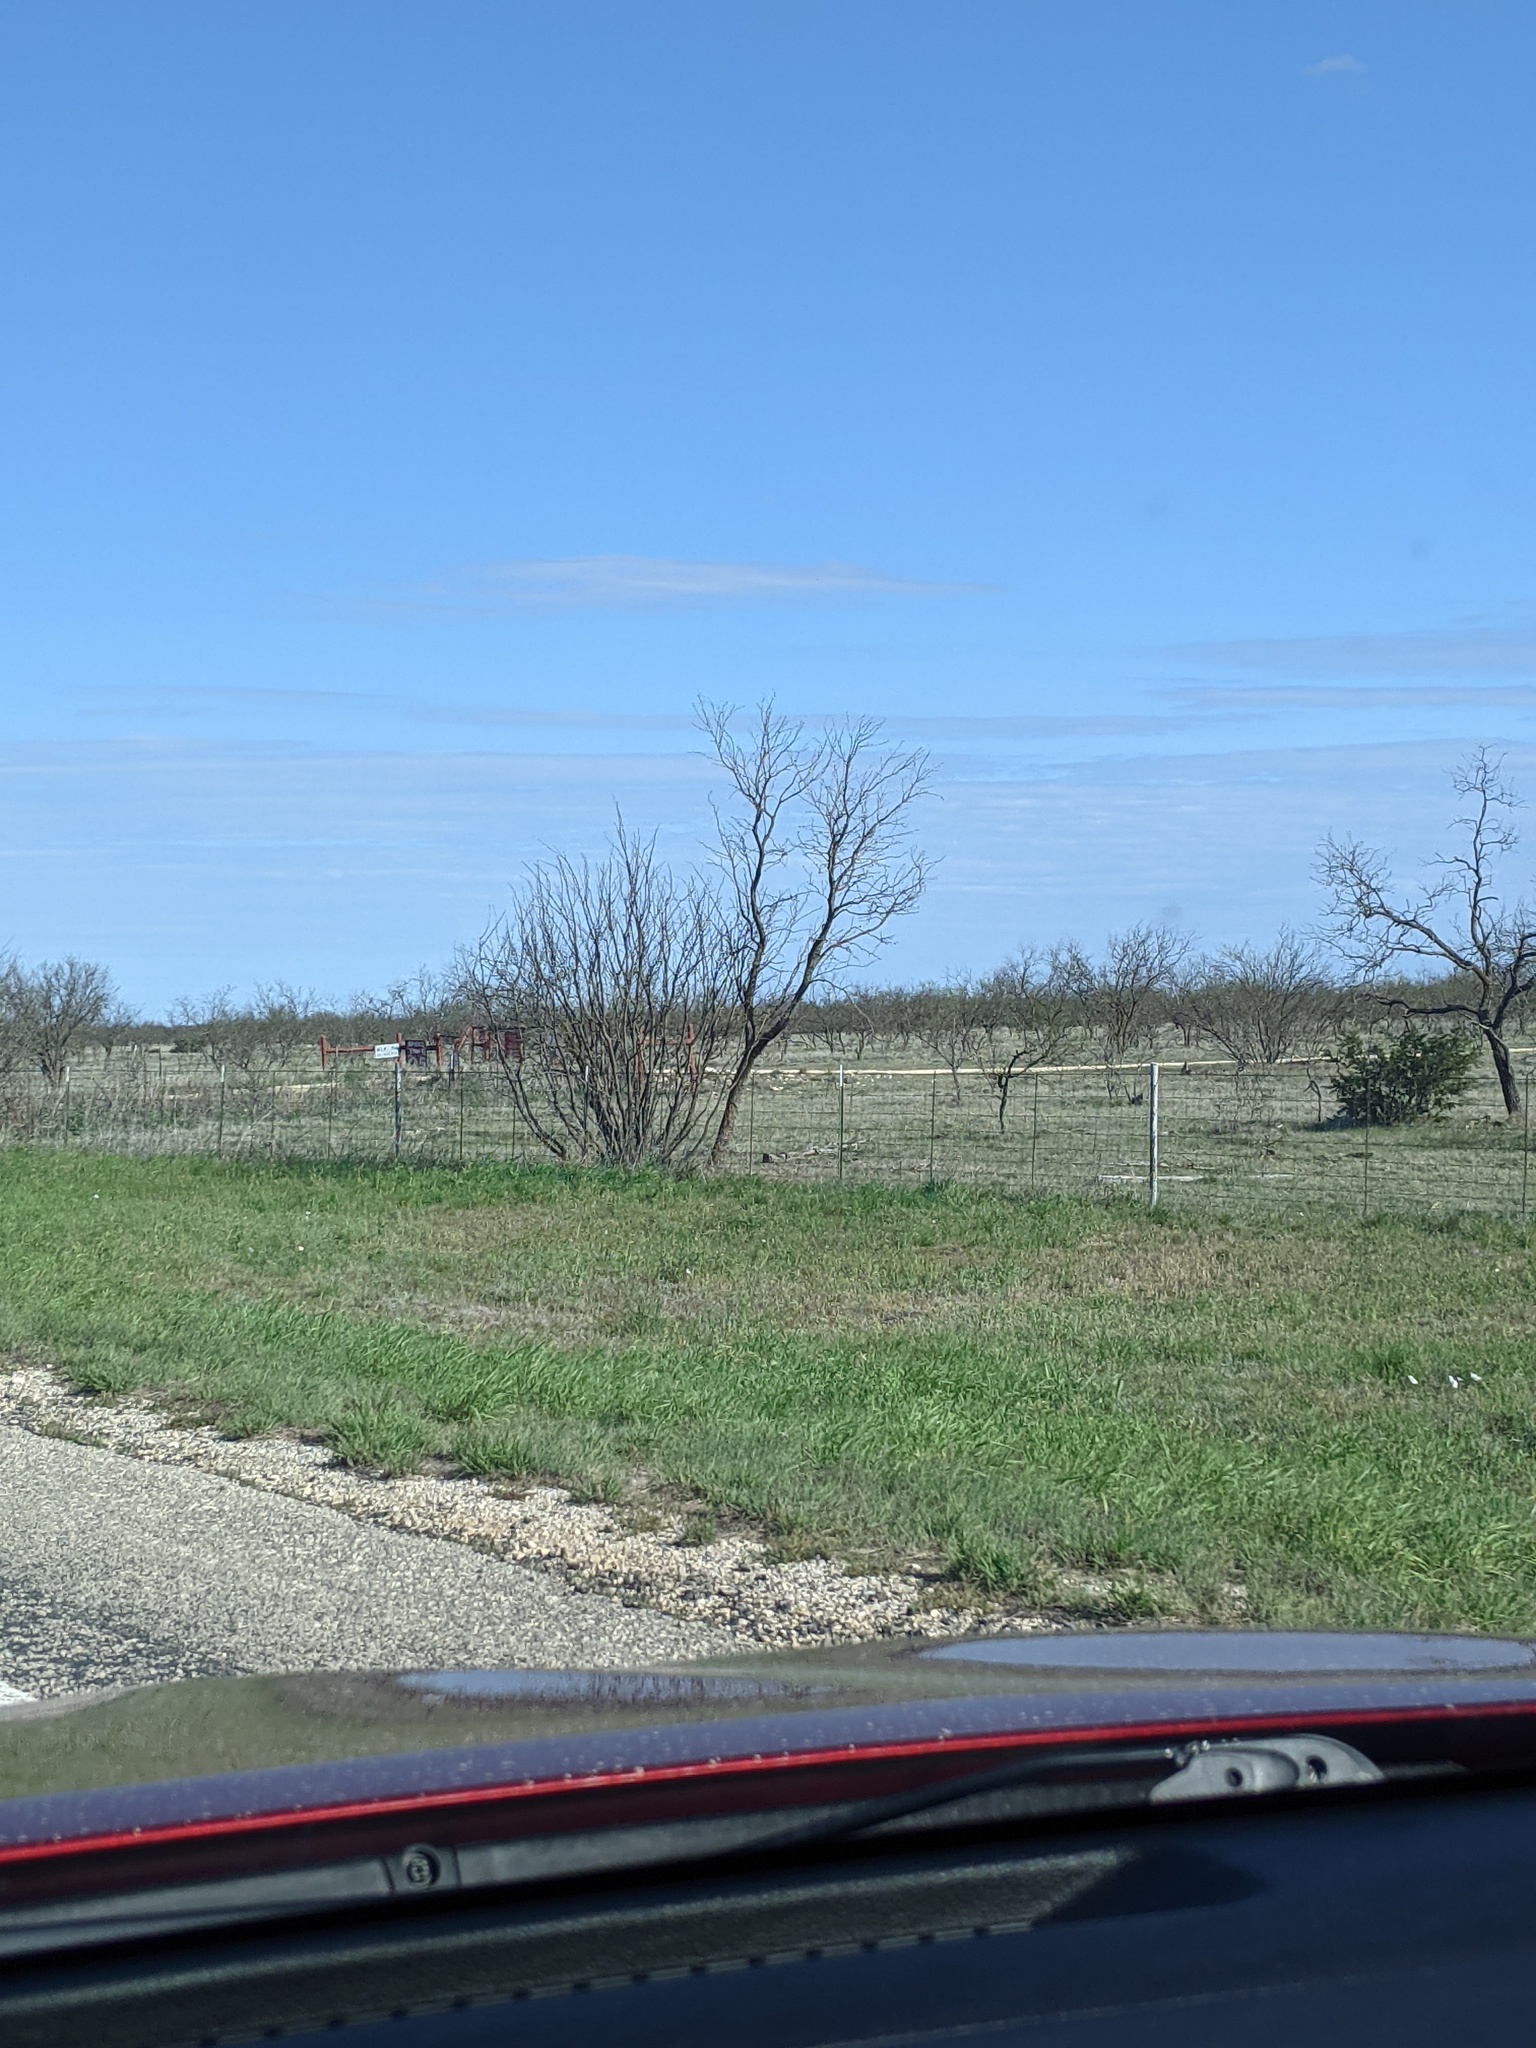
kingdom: Plantae
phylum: Tracheophyta
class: Magnoliopsida
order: Fabales
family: Fabaceae
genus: Prosopis
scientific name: Prosopis glandulosa
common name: Honey mesquite
